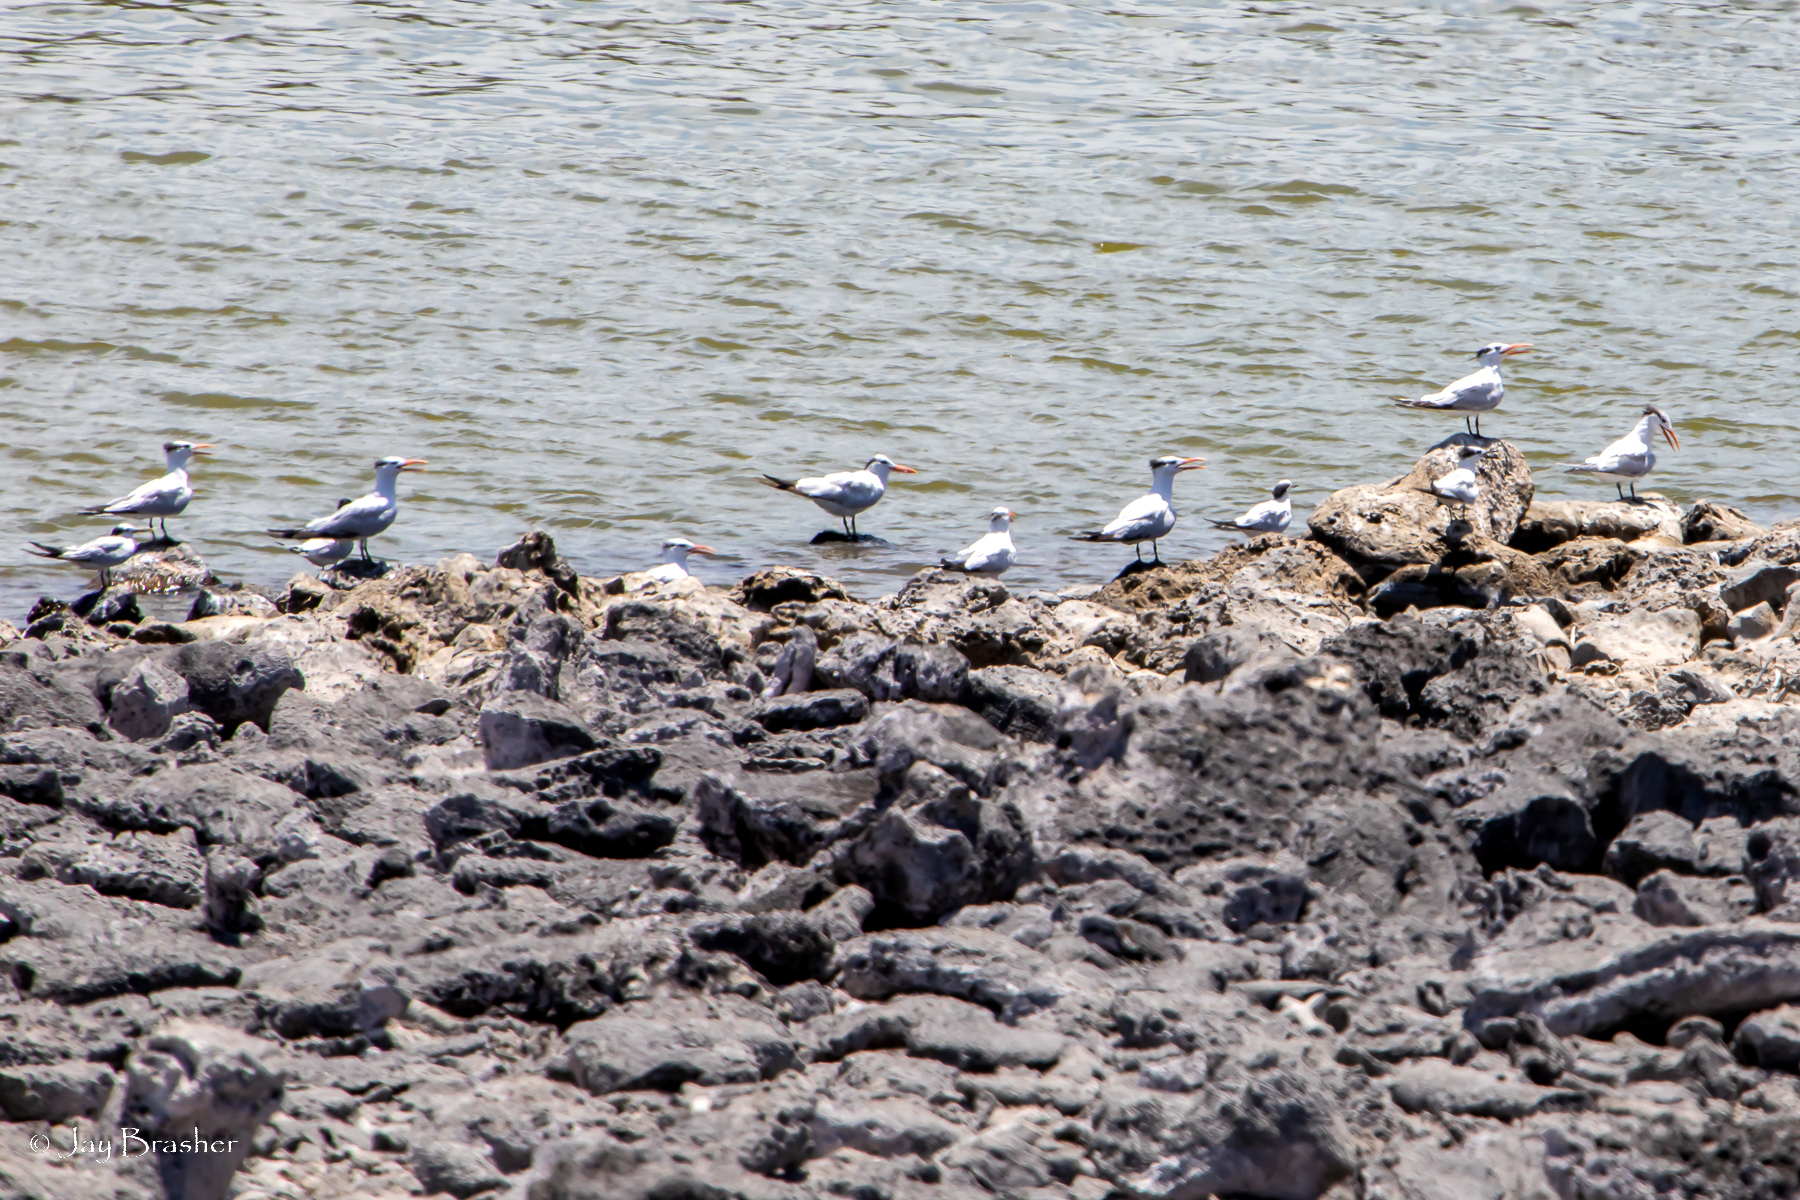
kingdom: Animalia
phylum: Chordata
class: Aves
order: Charadriiformes
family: Laridae
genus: Thalasseus
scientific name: Thalasseus maximus
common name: Royal tern
